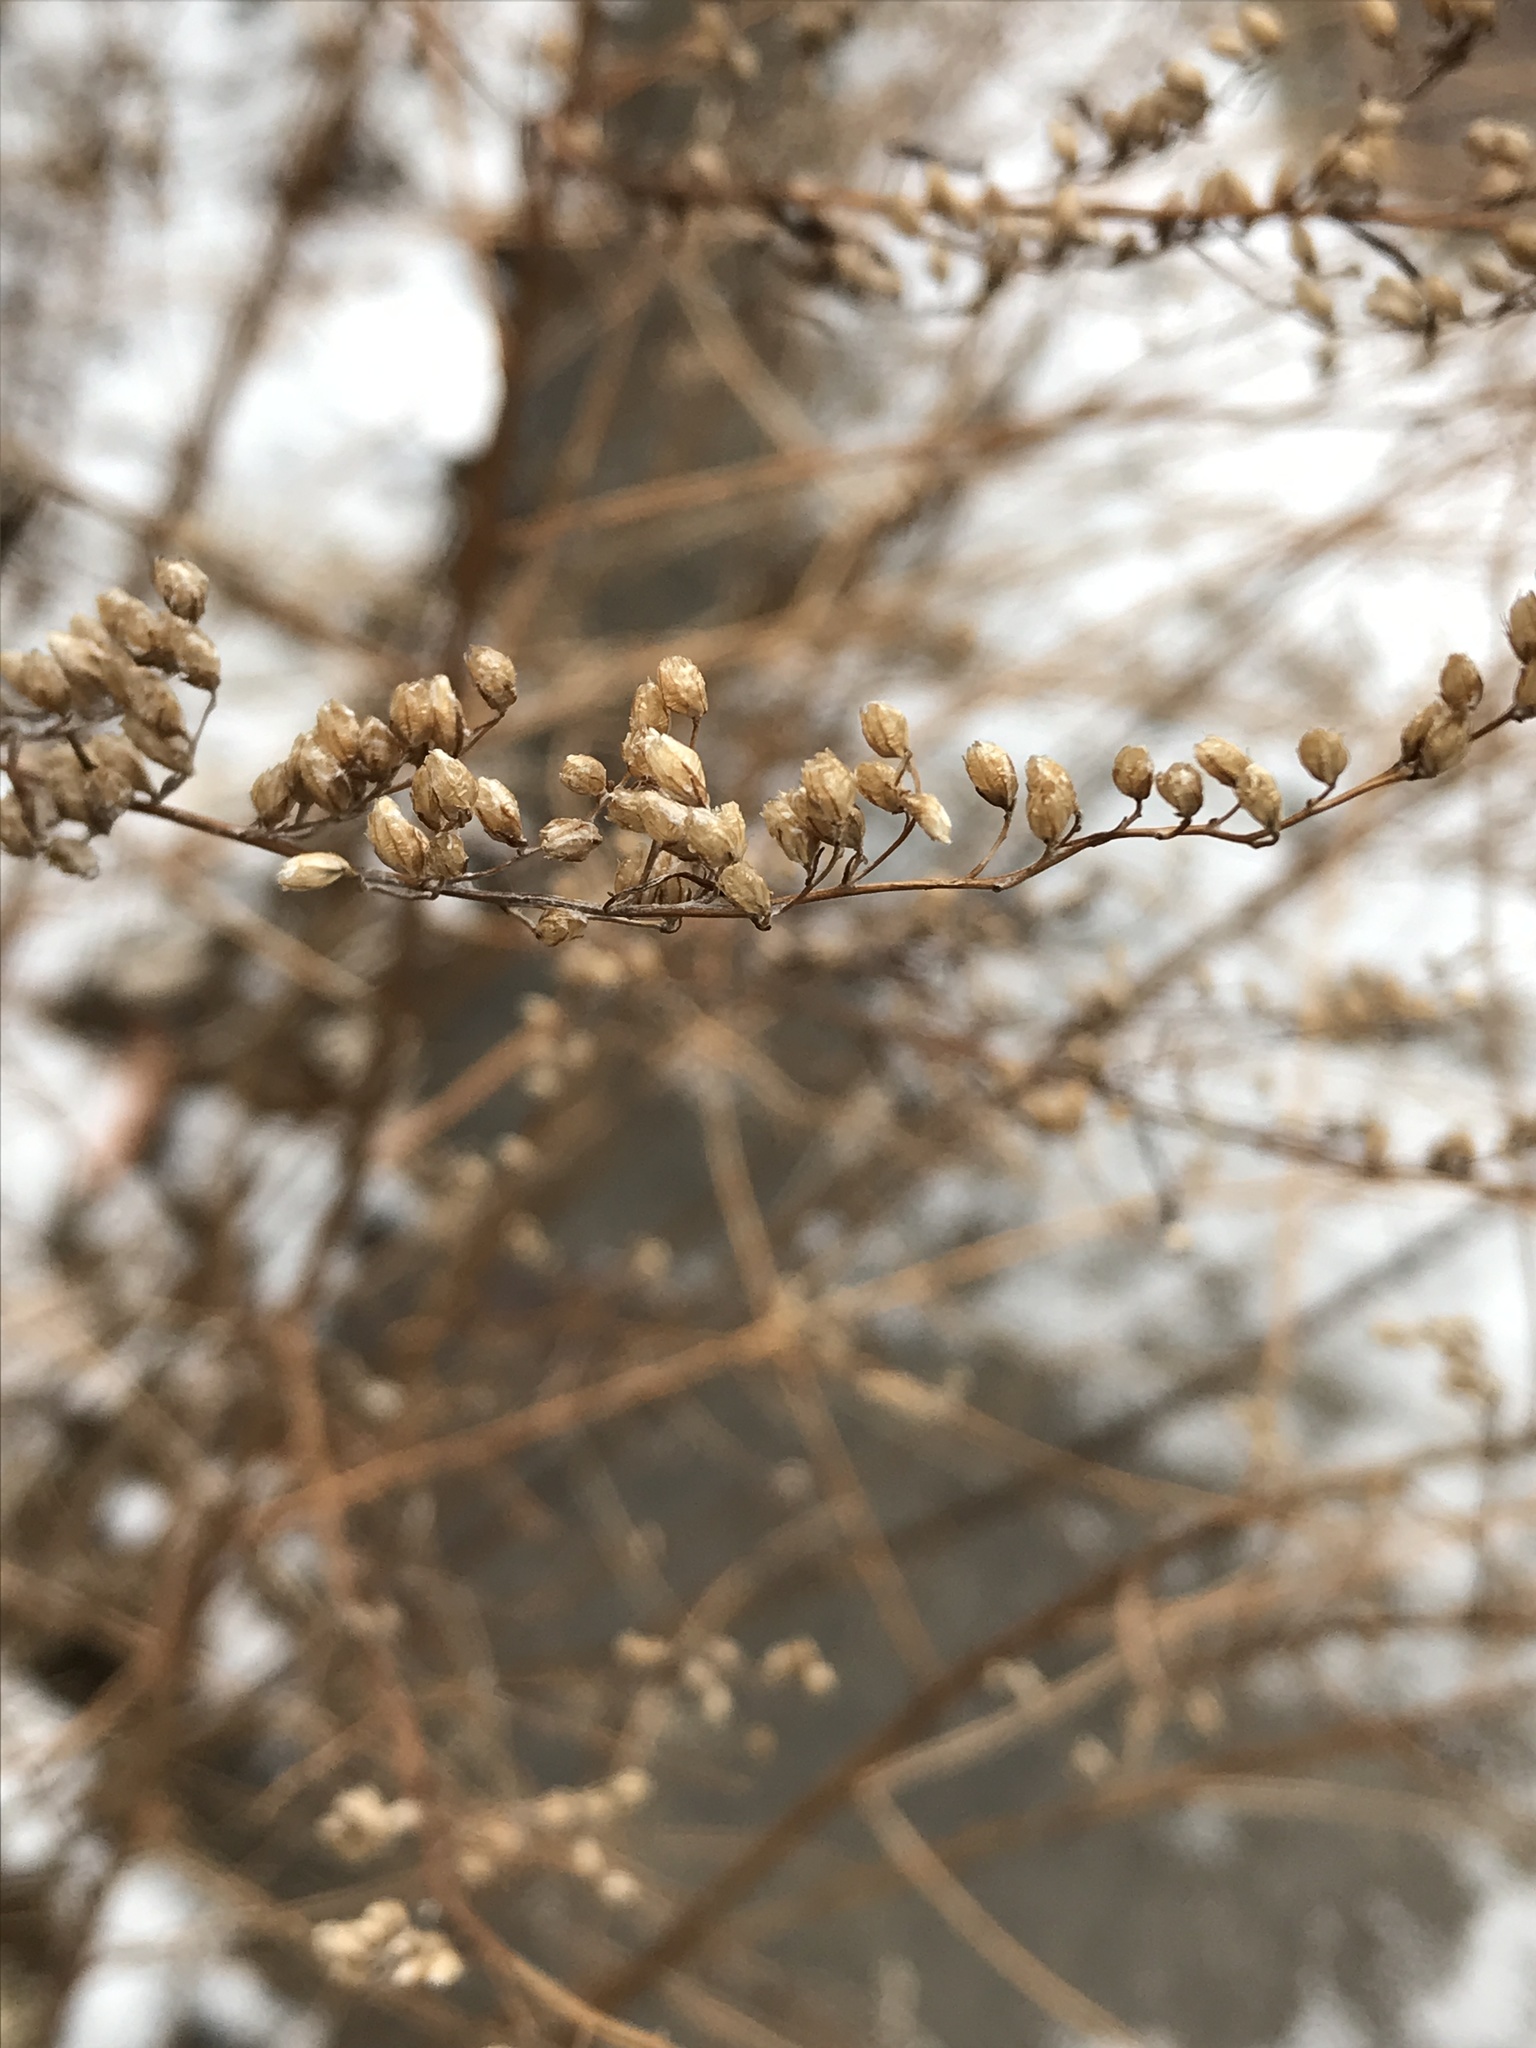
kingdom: Plantae
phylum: Tracheophyta
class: Magnoliopsida
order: Asterales
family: Asteraceae
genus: Artemisia
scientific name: Artemisia vulgaris
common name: Mugwort
